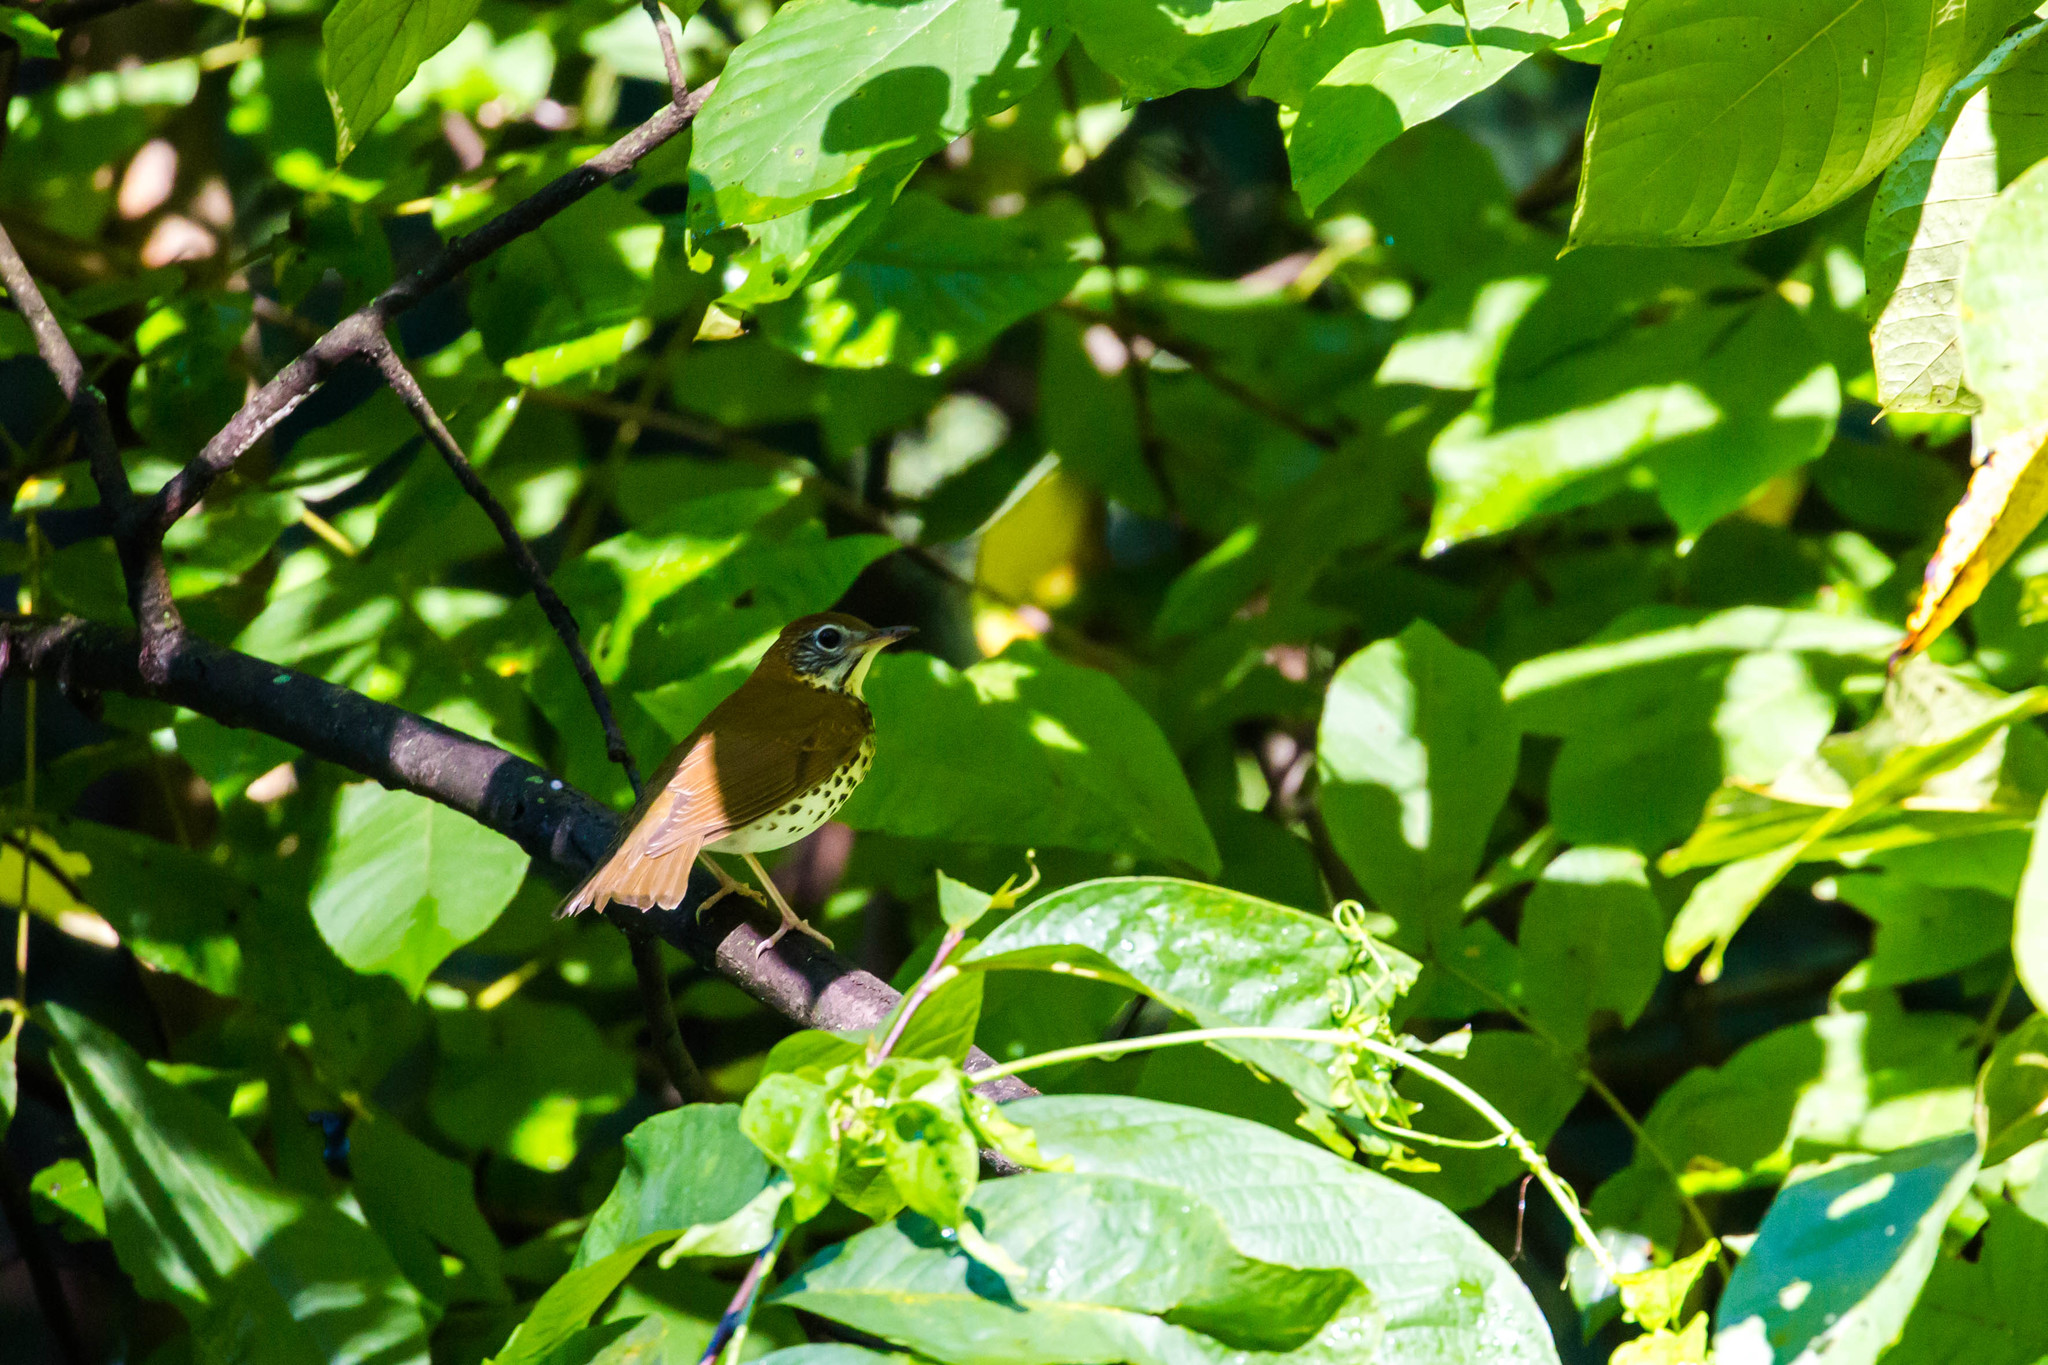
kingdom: Animalia
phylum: Chordata
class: Aves
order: Passeriformes
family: Turdidae
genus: Hylocichla
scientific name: Hylocichla mustelina
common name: Wood thrush
